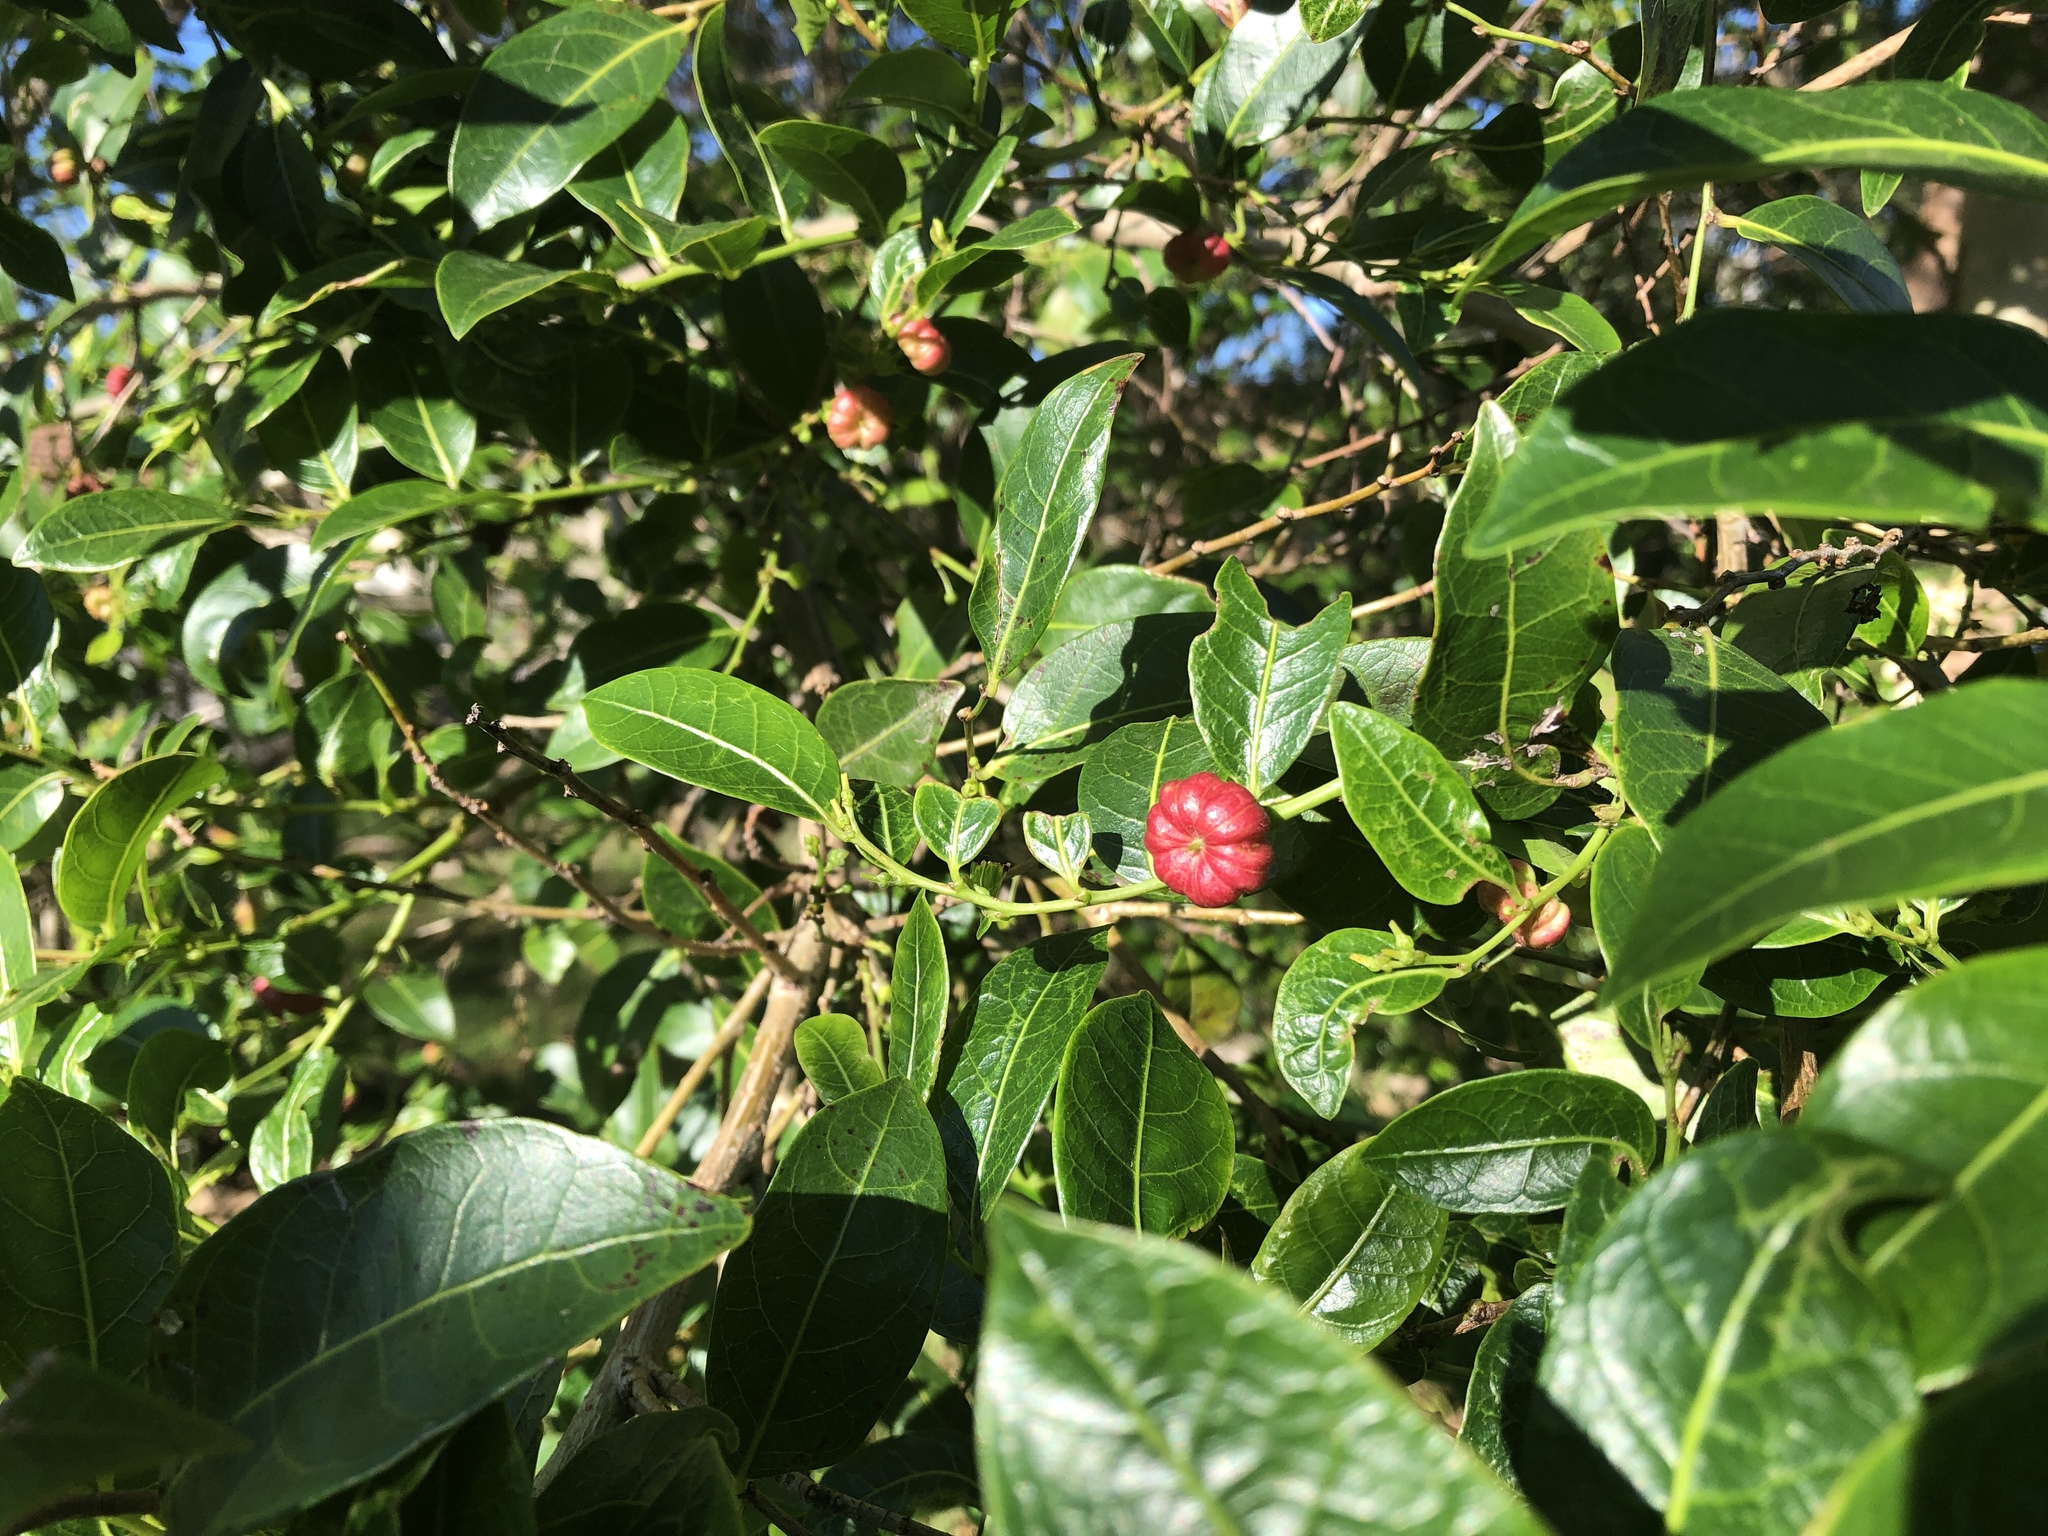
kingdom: Plantae
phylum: Tracheophyta
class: Magnoliopsida
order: Malpighiales
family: Phyllanthaceae
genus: Glochidion
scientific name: Glochidion ferdinandi
